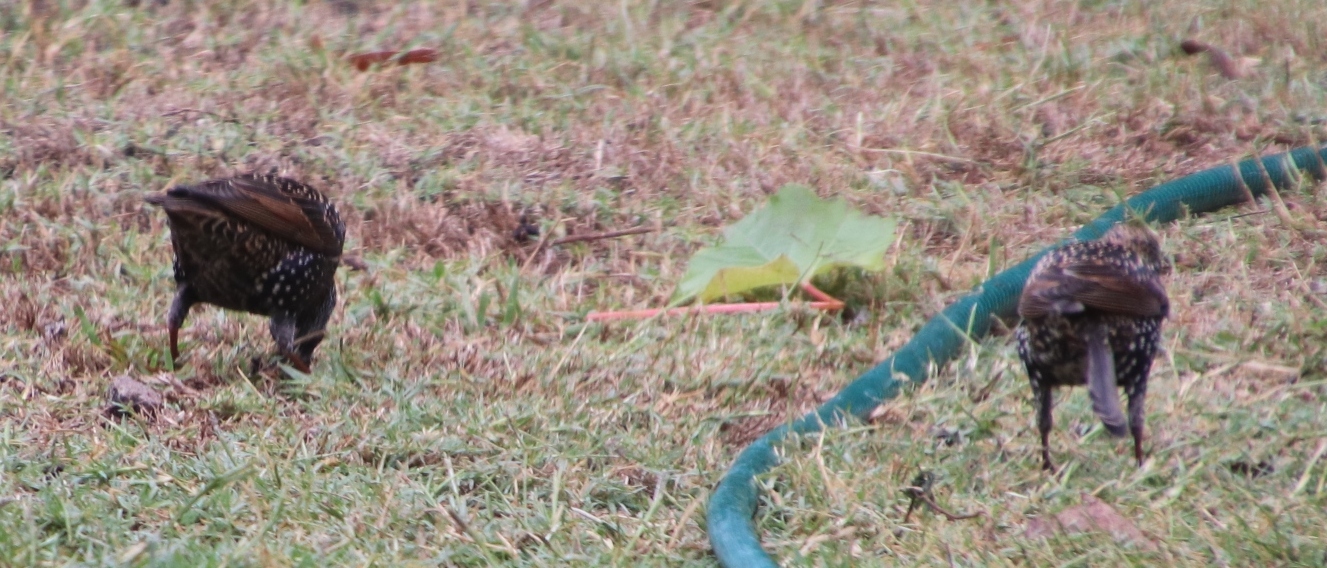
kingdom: Animalia
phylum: Chordata
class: Aves
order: Passeriformes
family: Sturnidae
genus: Sturnus
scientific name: Sturnus vulgaris
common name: Common starling
